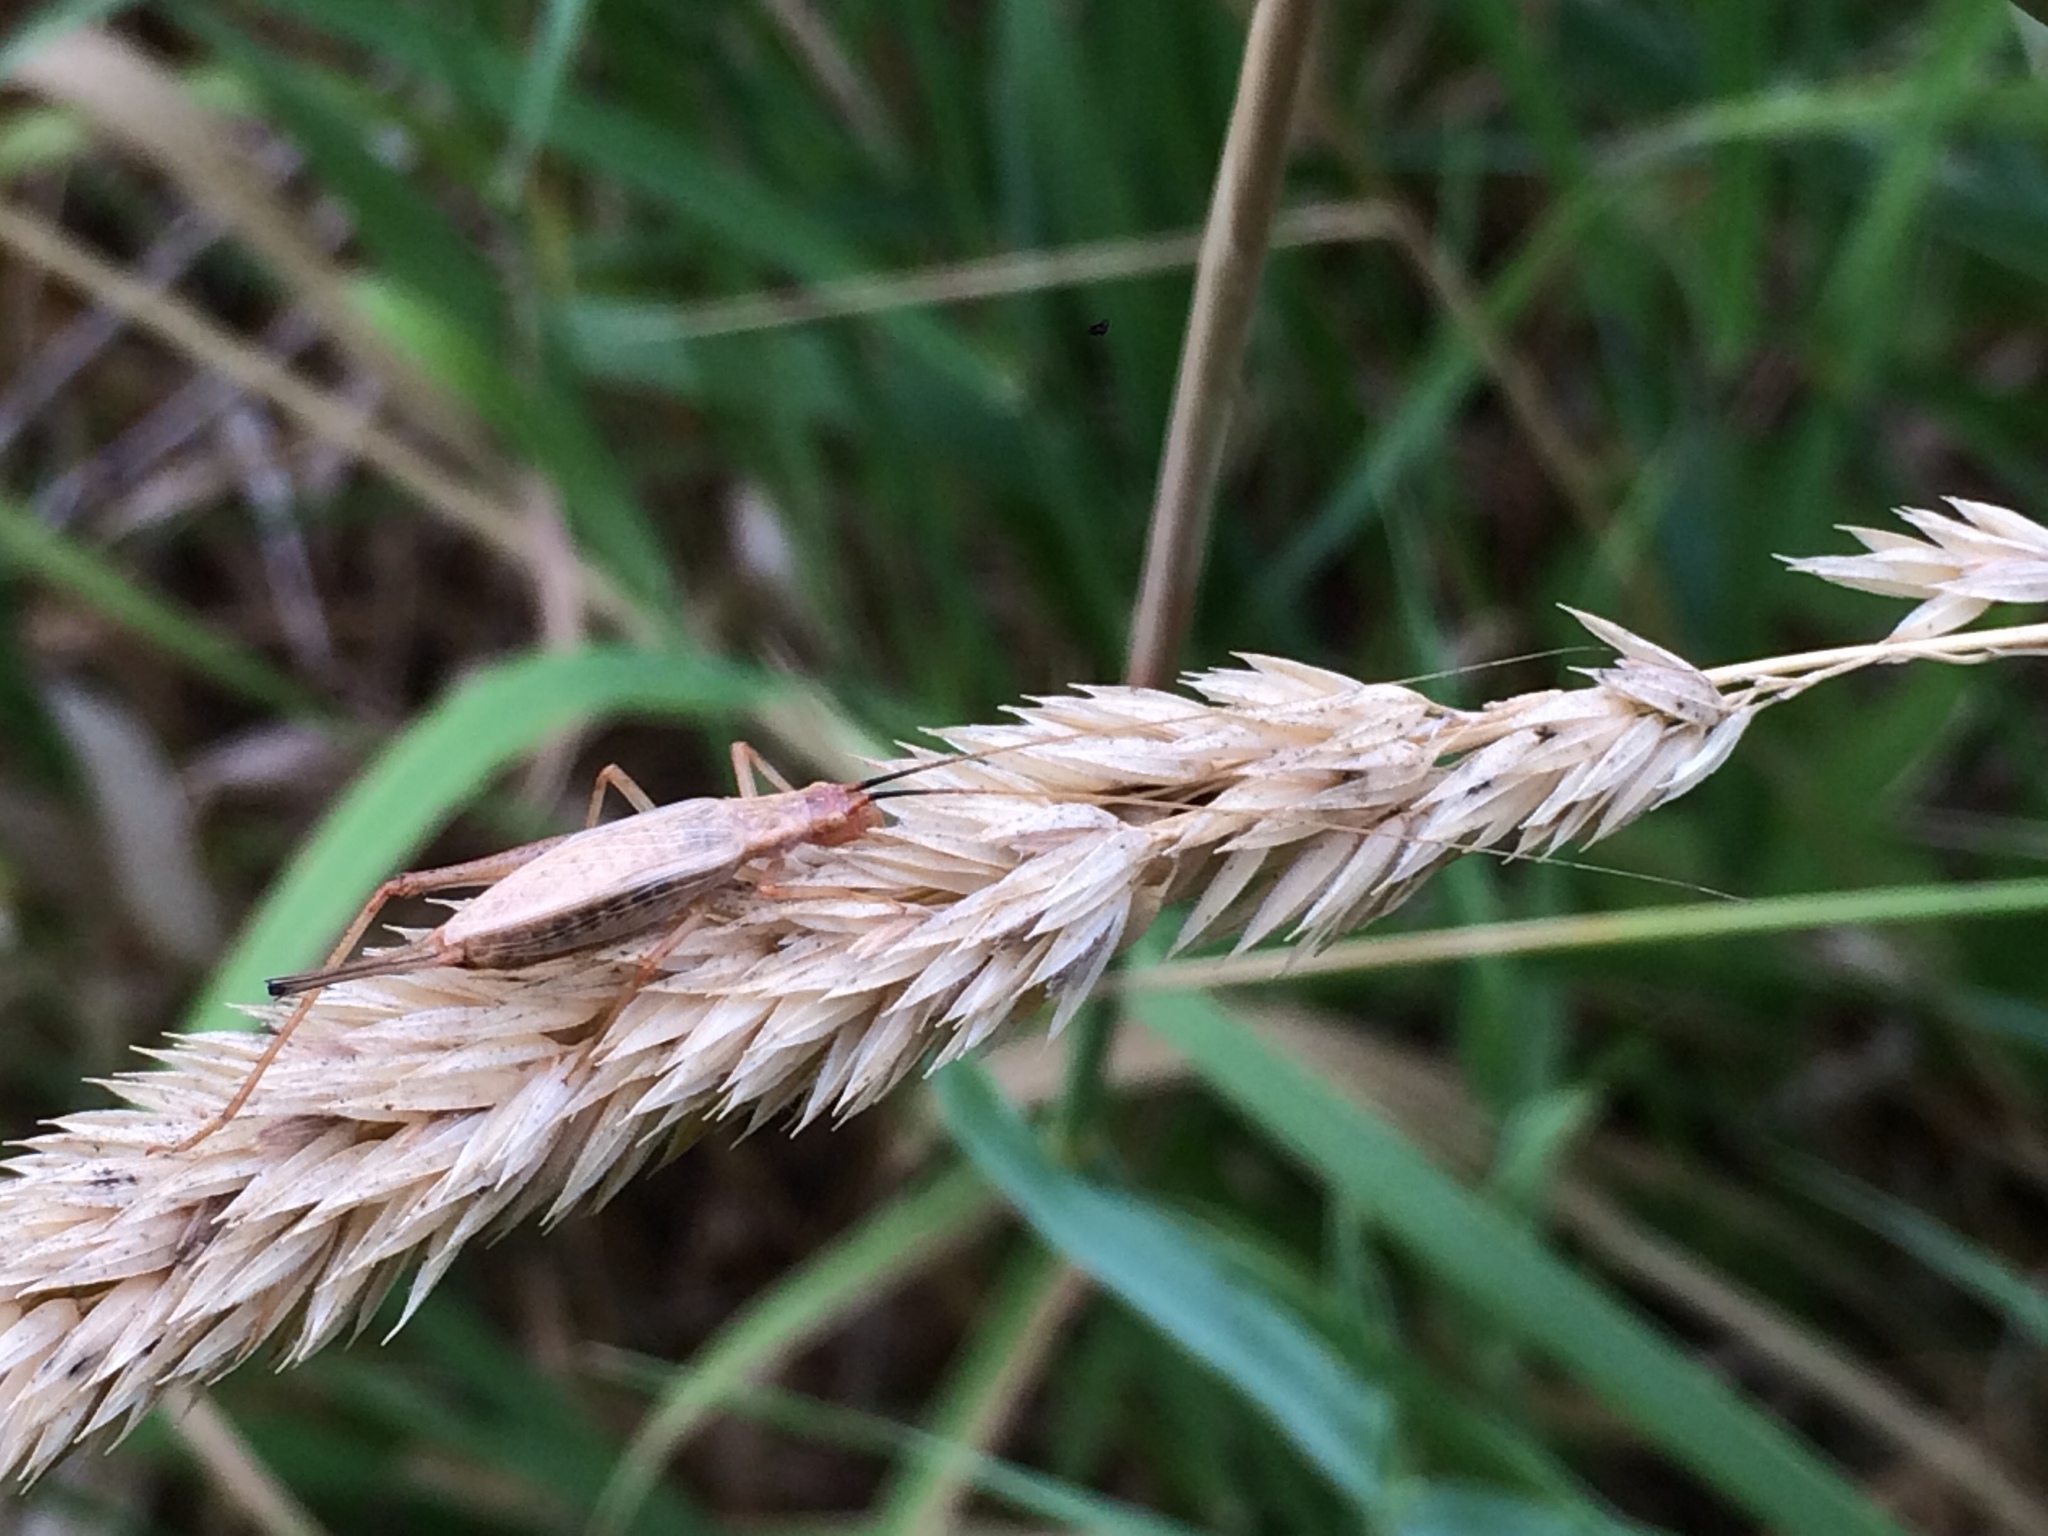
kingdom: Animalia
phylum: Arthropoda
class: Insecta
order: Orthoptera
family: Gryllidae
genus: Oecanthus
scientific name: Oecanthus californicus
